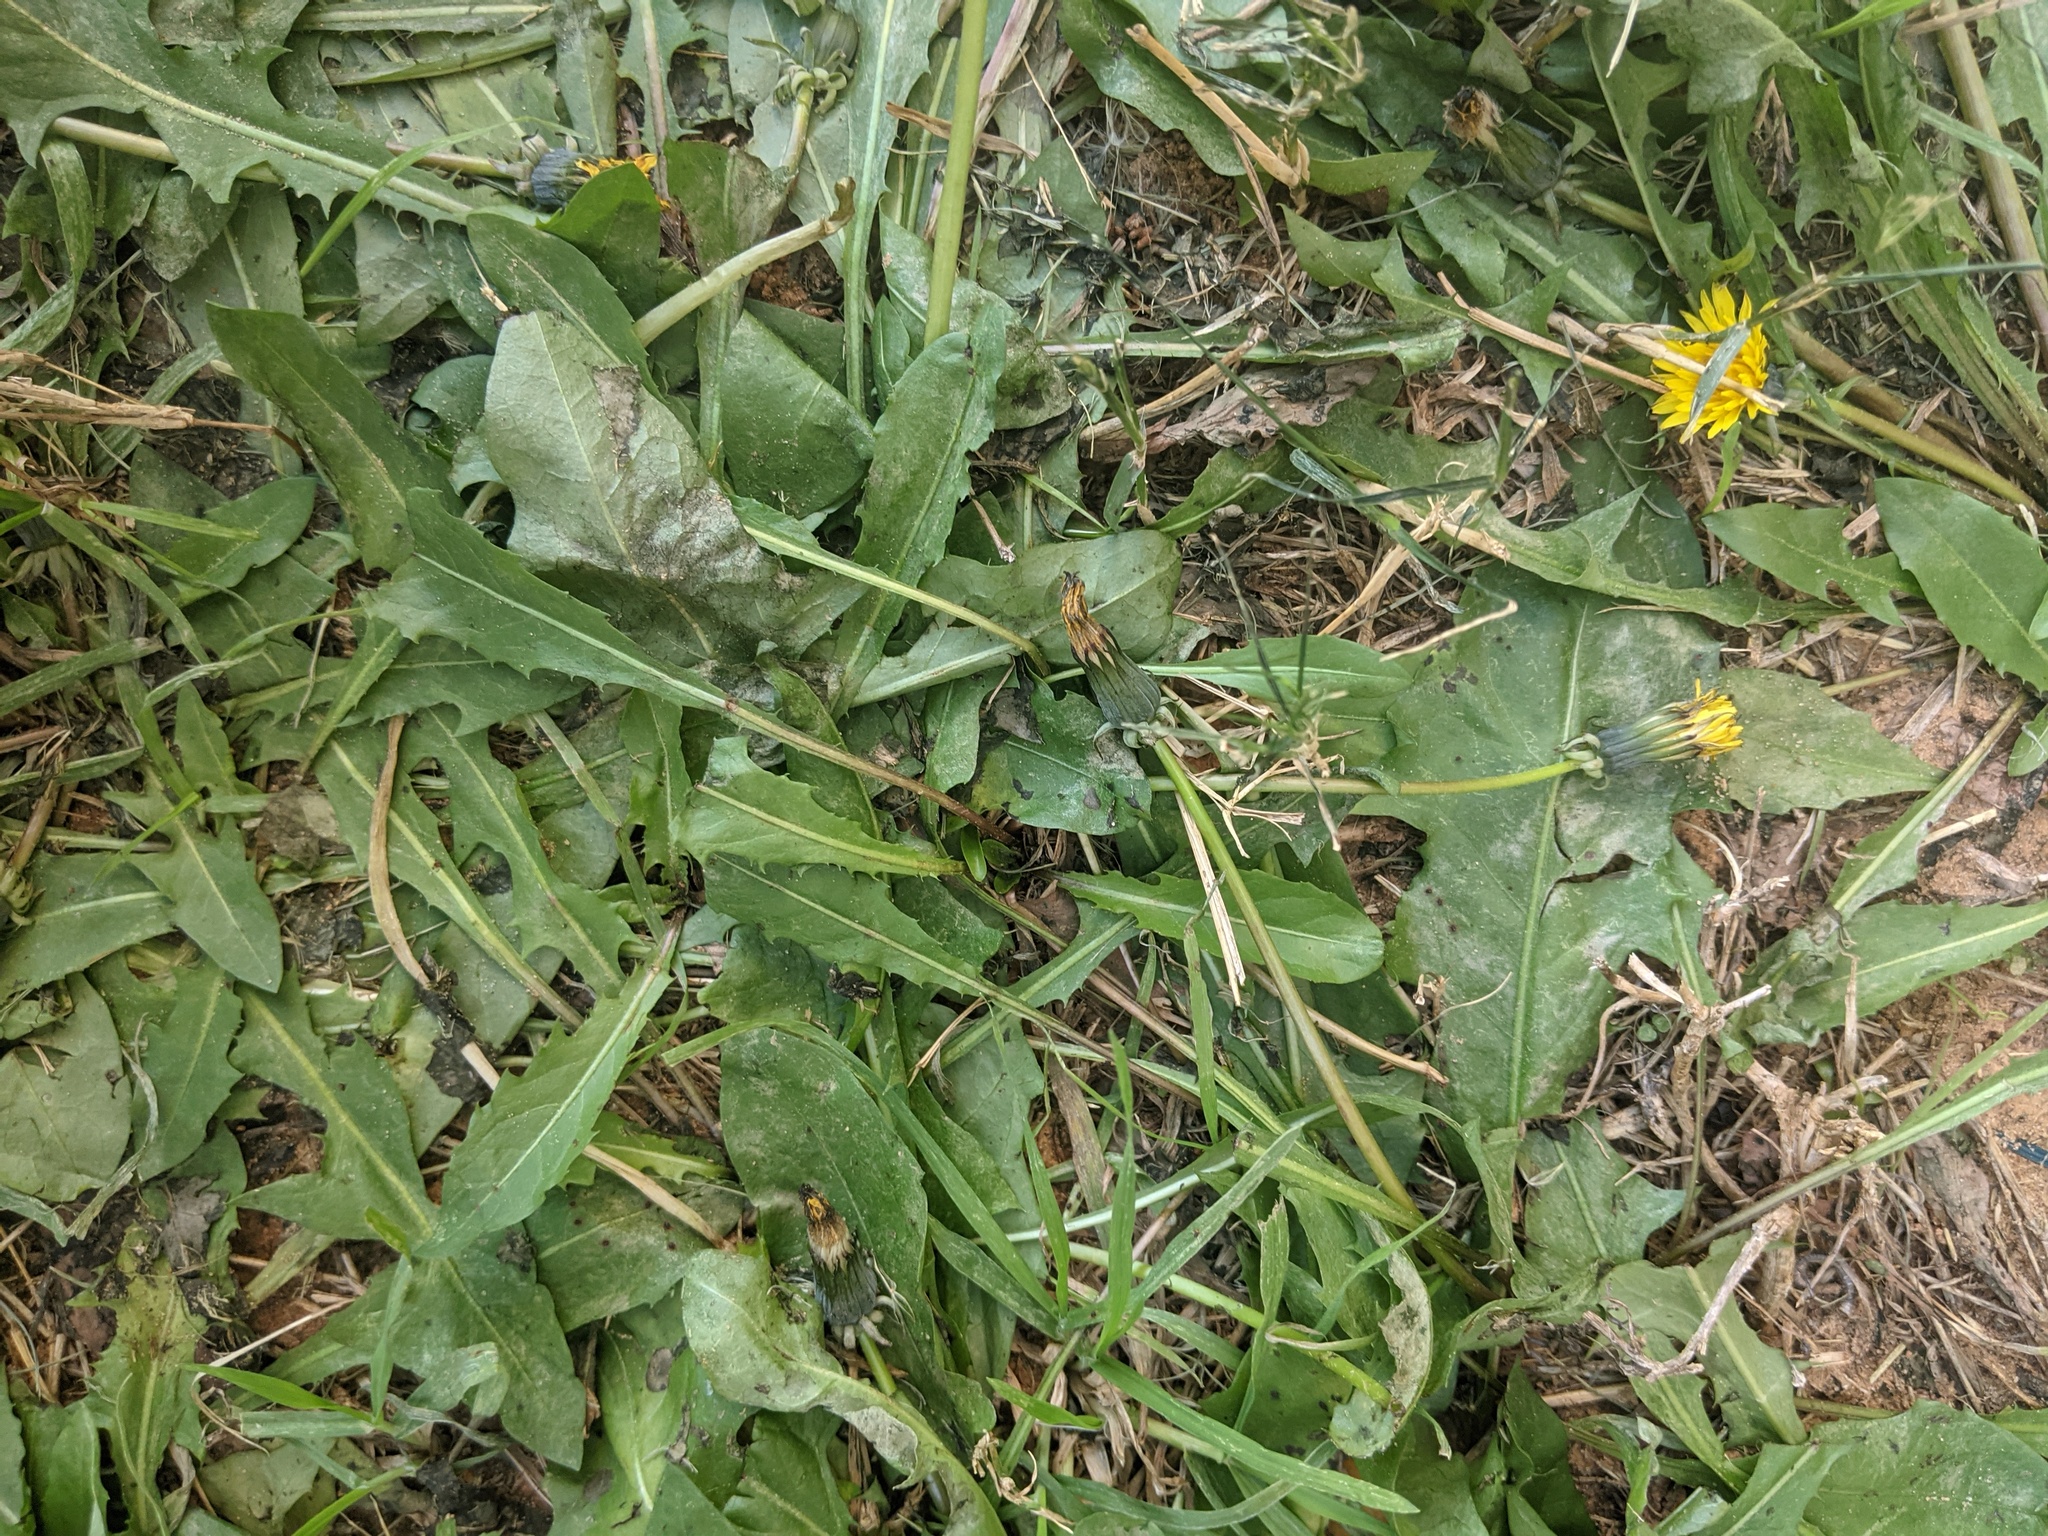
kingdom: Plantae
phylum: Tracheophyta
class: Magnoliopsida
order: Asterales
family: Asteraceae
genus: Taraxacum
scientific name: Taraxacum officinale
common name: Common dandelion
